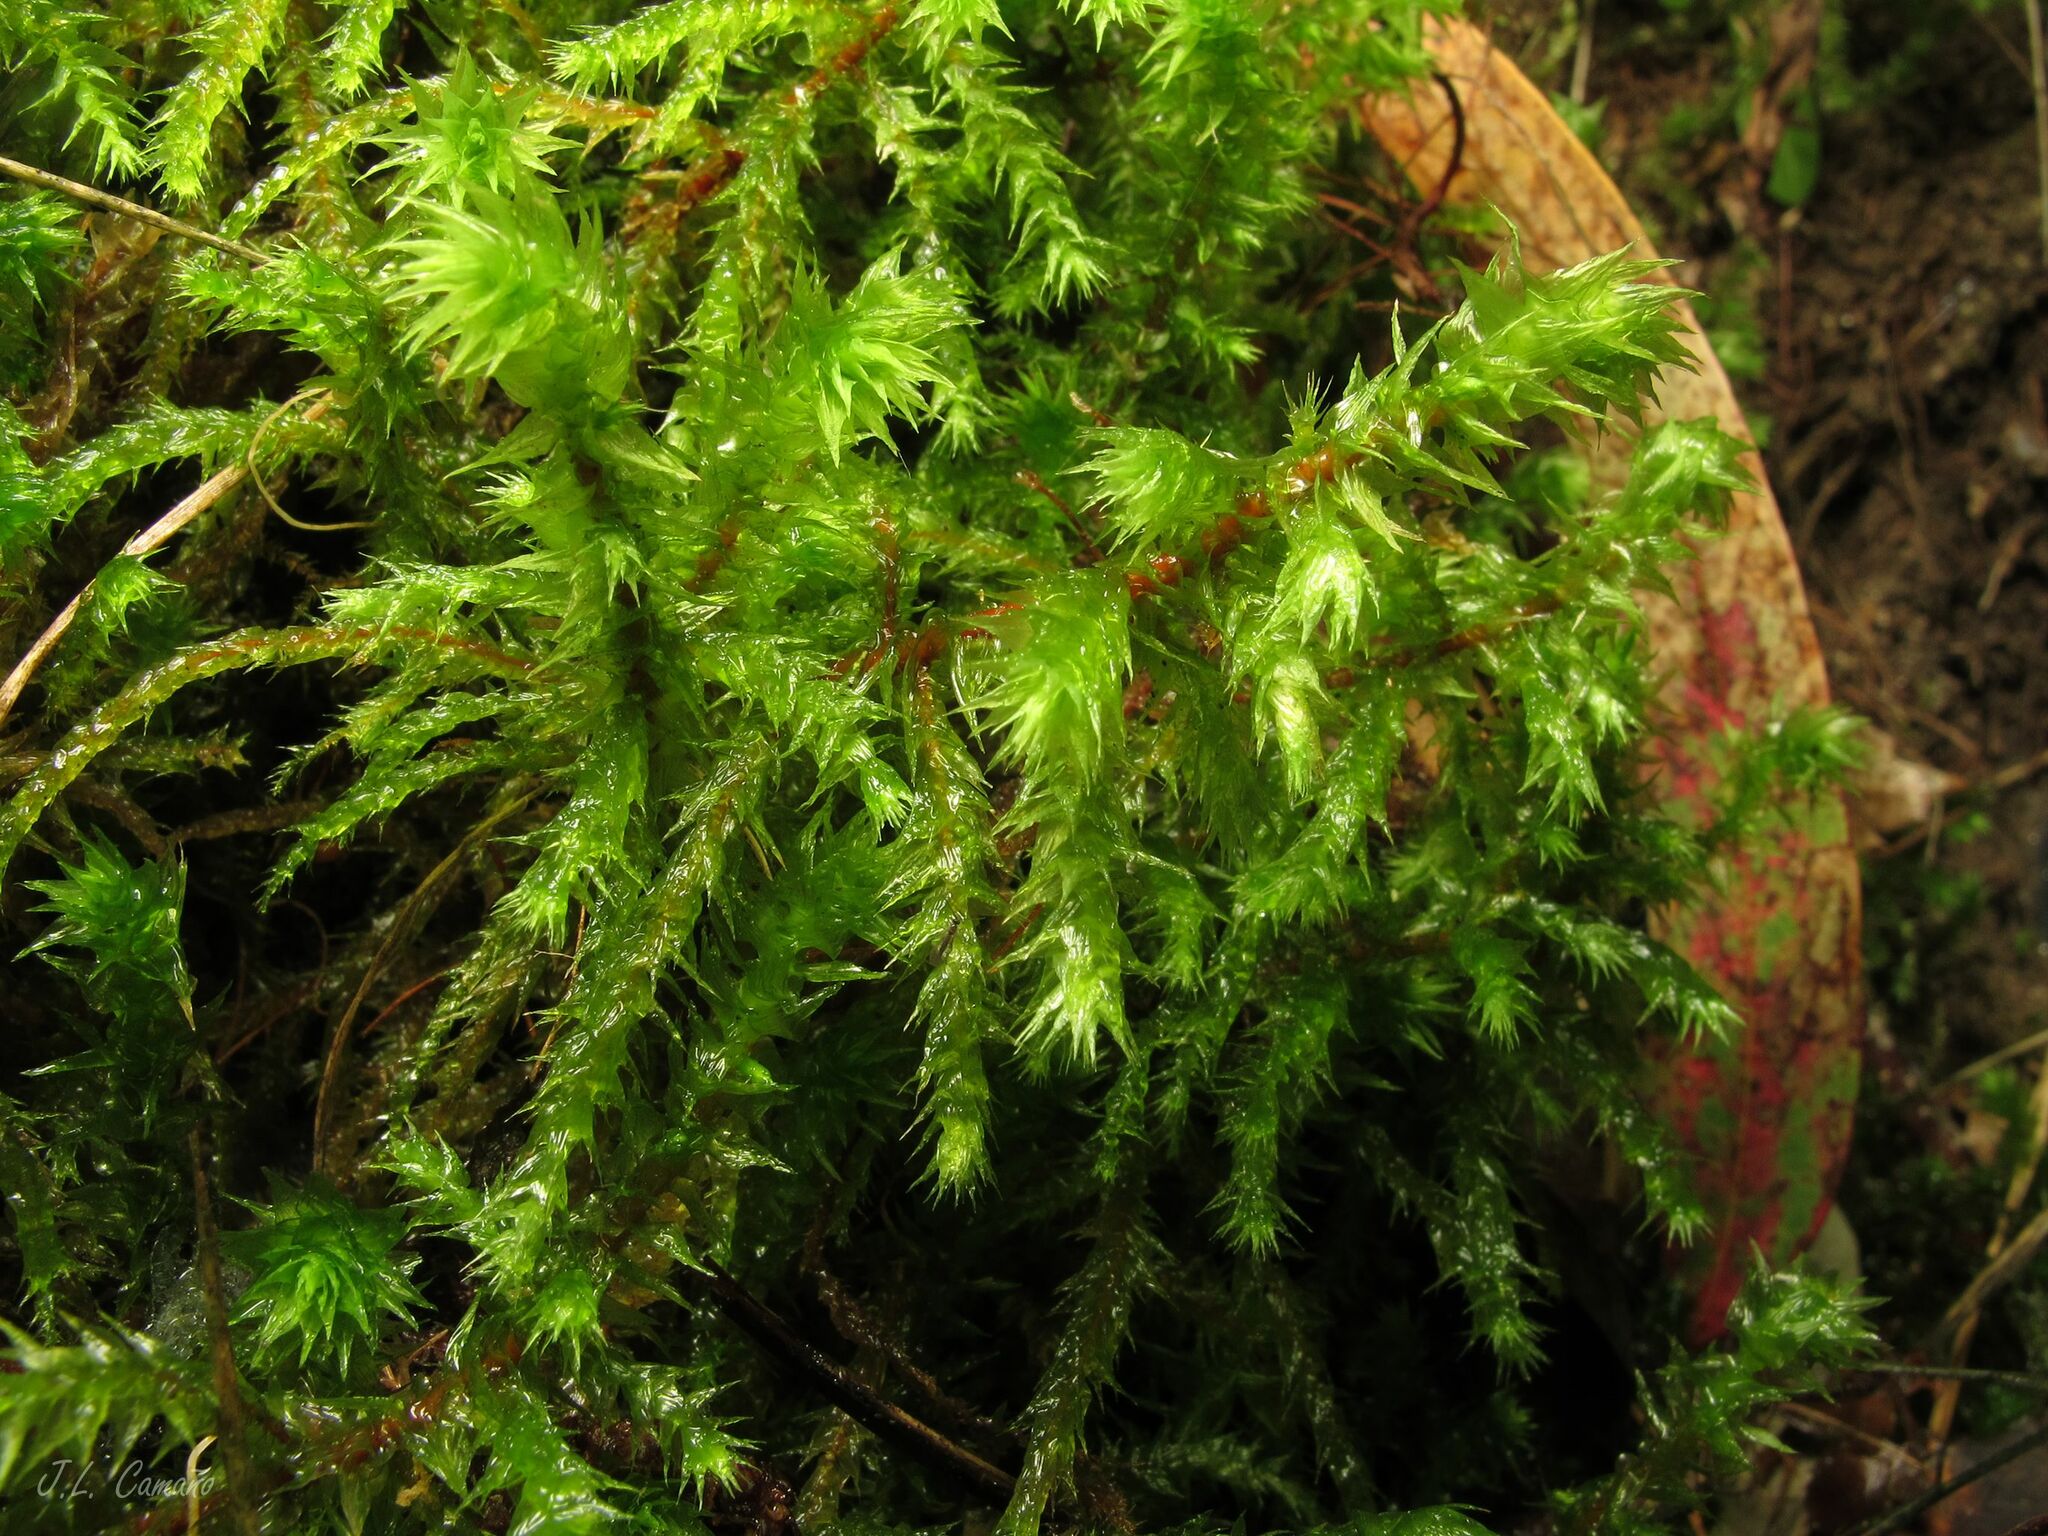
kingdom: Plantae
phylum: Bryophyta
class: Bryopsida
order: Hypnales
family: Hylocomiaceae
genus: Hylocomiadelphus
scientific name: Hylocomiadelphus triquetrus
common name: Rough goose neck moss
